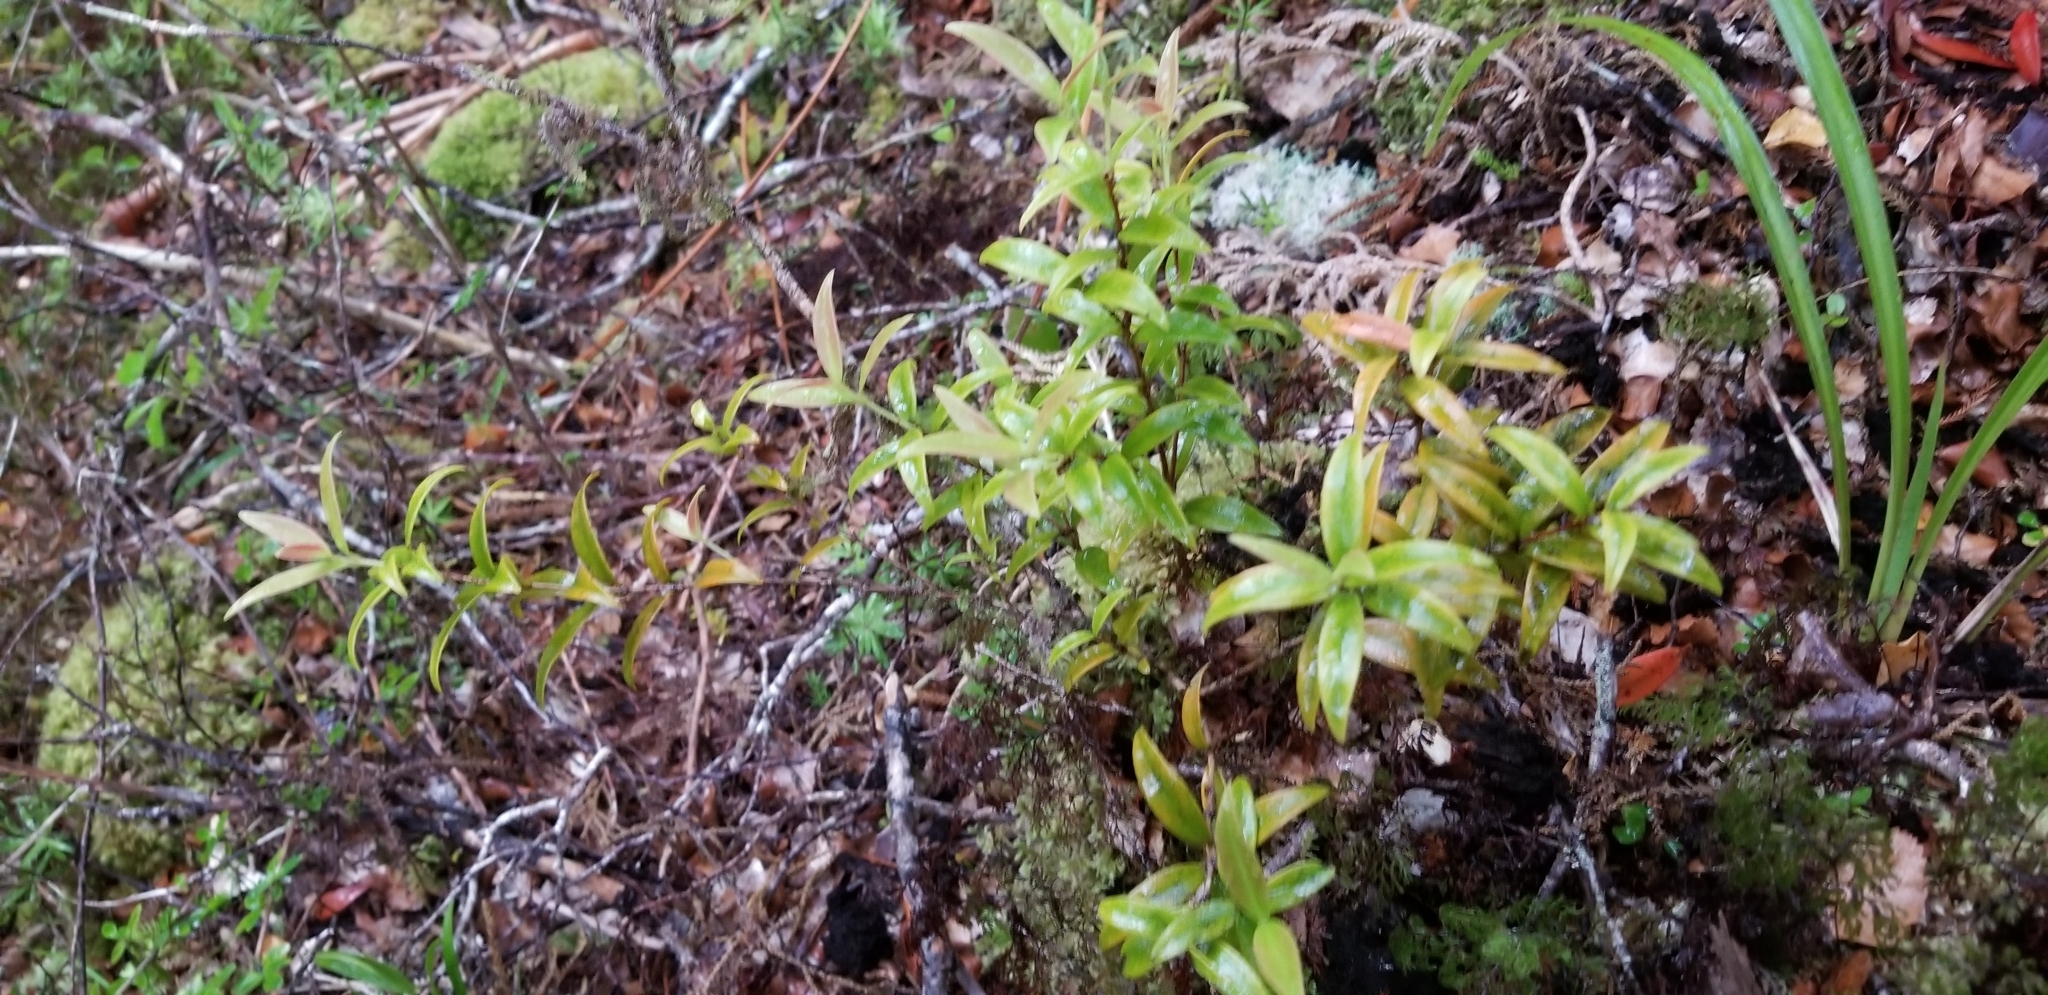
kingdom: Plantae
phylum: Tracheophyta
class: Magnoliopsida
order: Myrtales
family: Myrtaceae
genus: Metrosideros
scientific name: Metrosideros umbellata
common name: Southern rata
